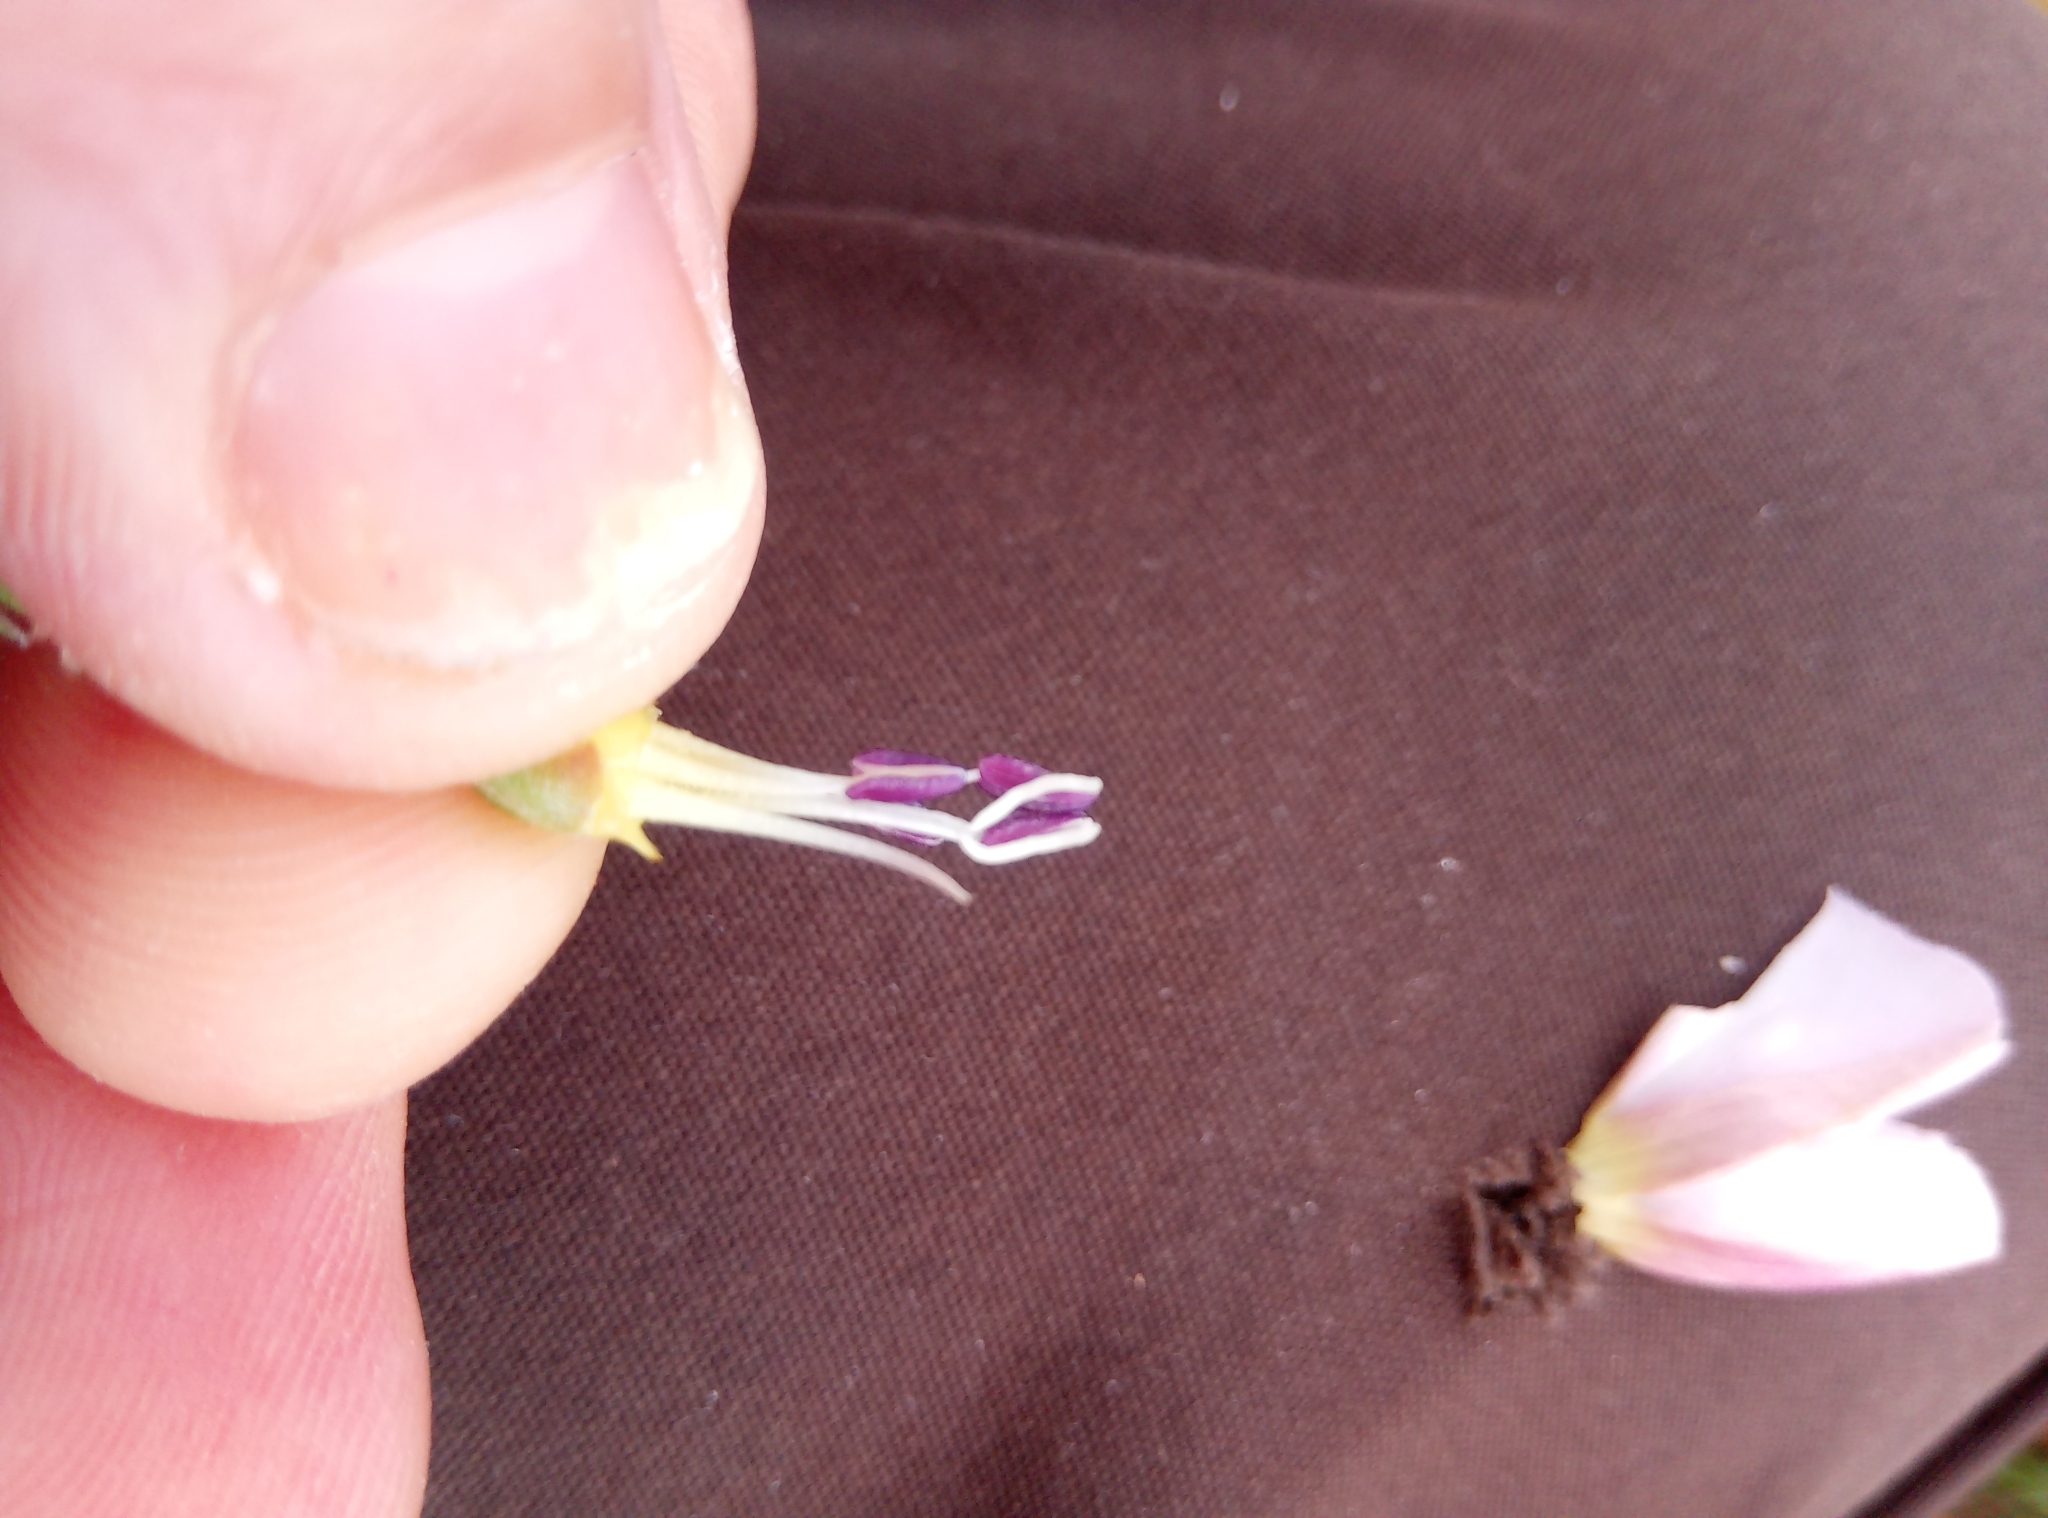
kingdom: Plantae
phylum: Tracheophyta
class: Magnoliopsida
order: Solanales
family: Convolvulaceae
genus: Convolvulus
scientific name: Convolvulus arvensis
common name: Field bindweed
